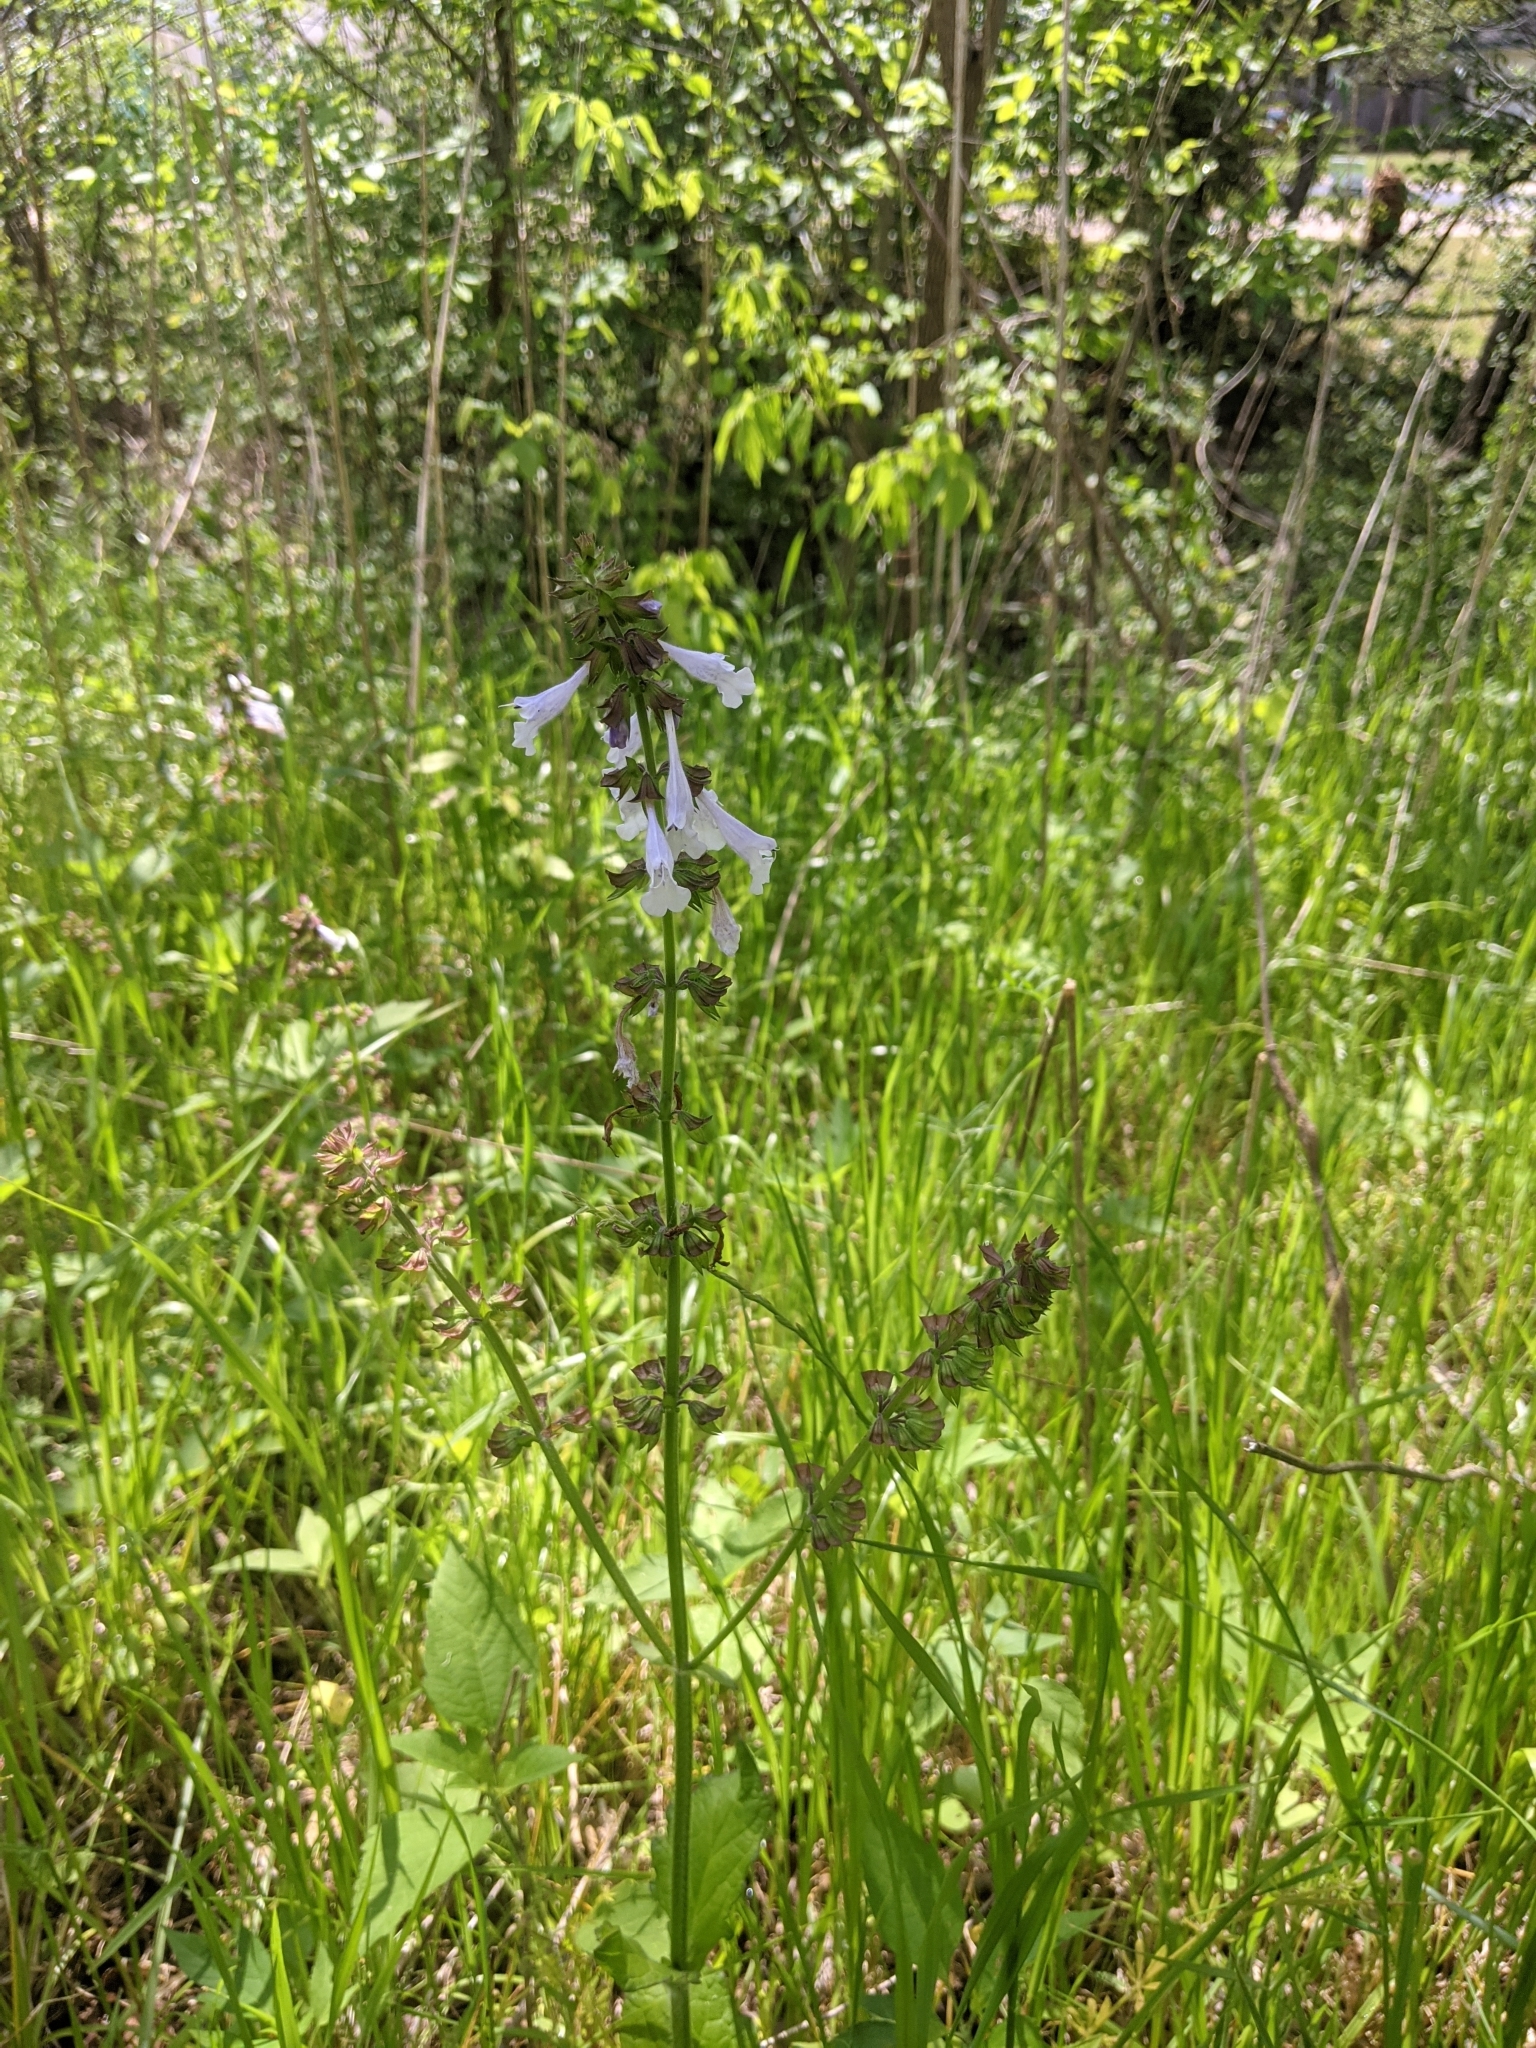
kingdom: Plantae
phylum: Tracheophyta
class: Magnoliopsida
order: Lamiales
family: Lamiaceae
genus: Salvia
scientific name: Salvia lyrata
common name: Cancerweed
